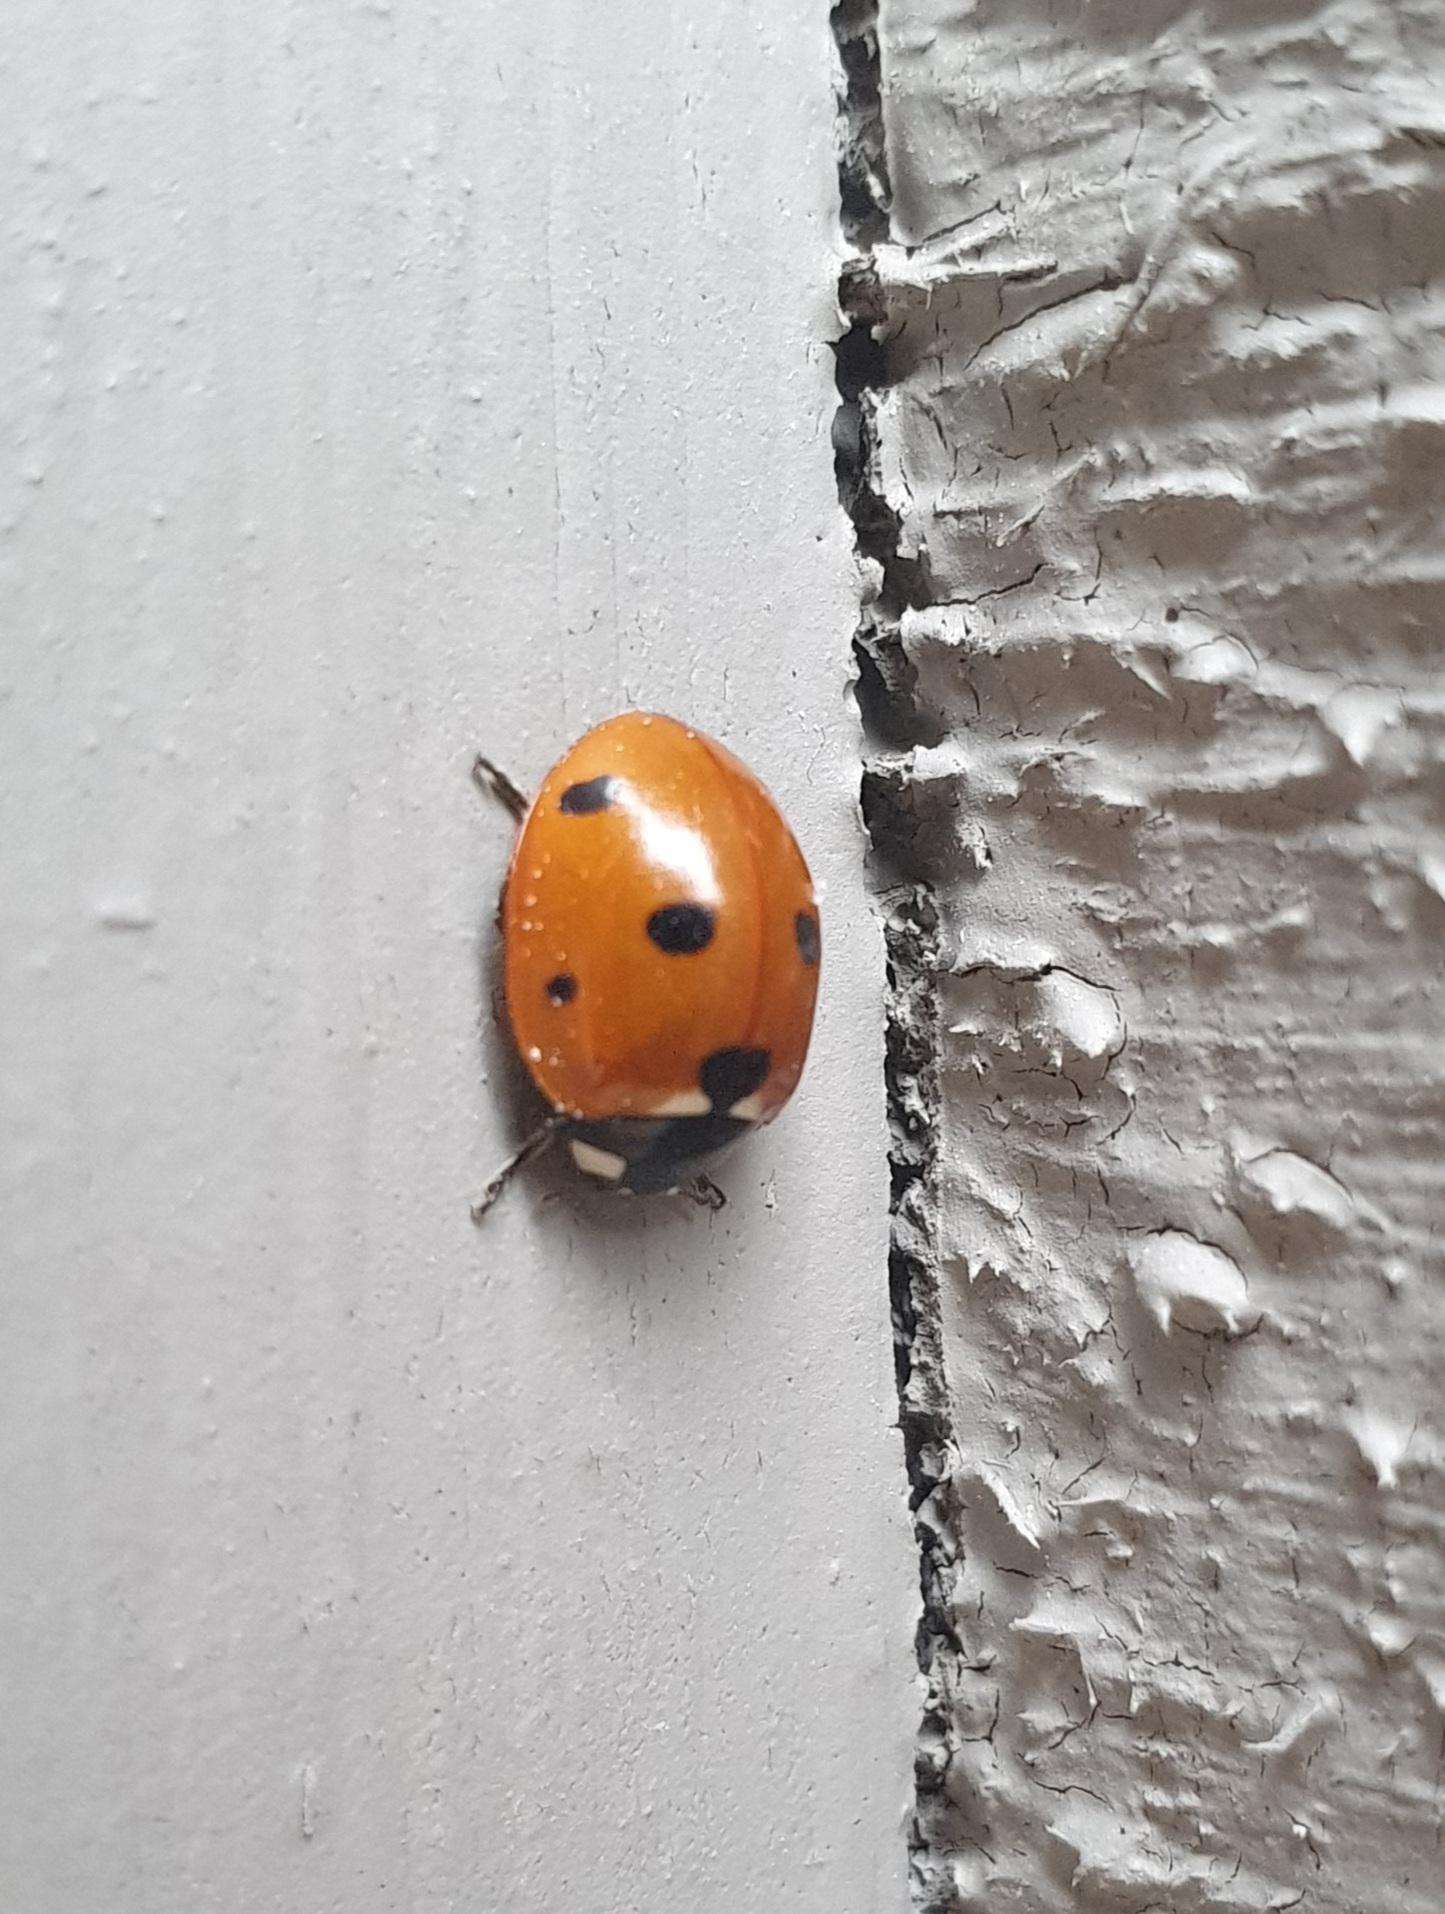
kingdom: Animalia
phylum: Arthropoda
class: Insecta
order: Coleoptera
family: Coccinellidae
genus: Coccinella
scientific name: Coccinella septempunctata
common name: Sevenspotted lady beetle
